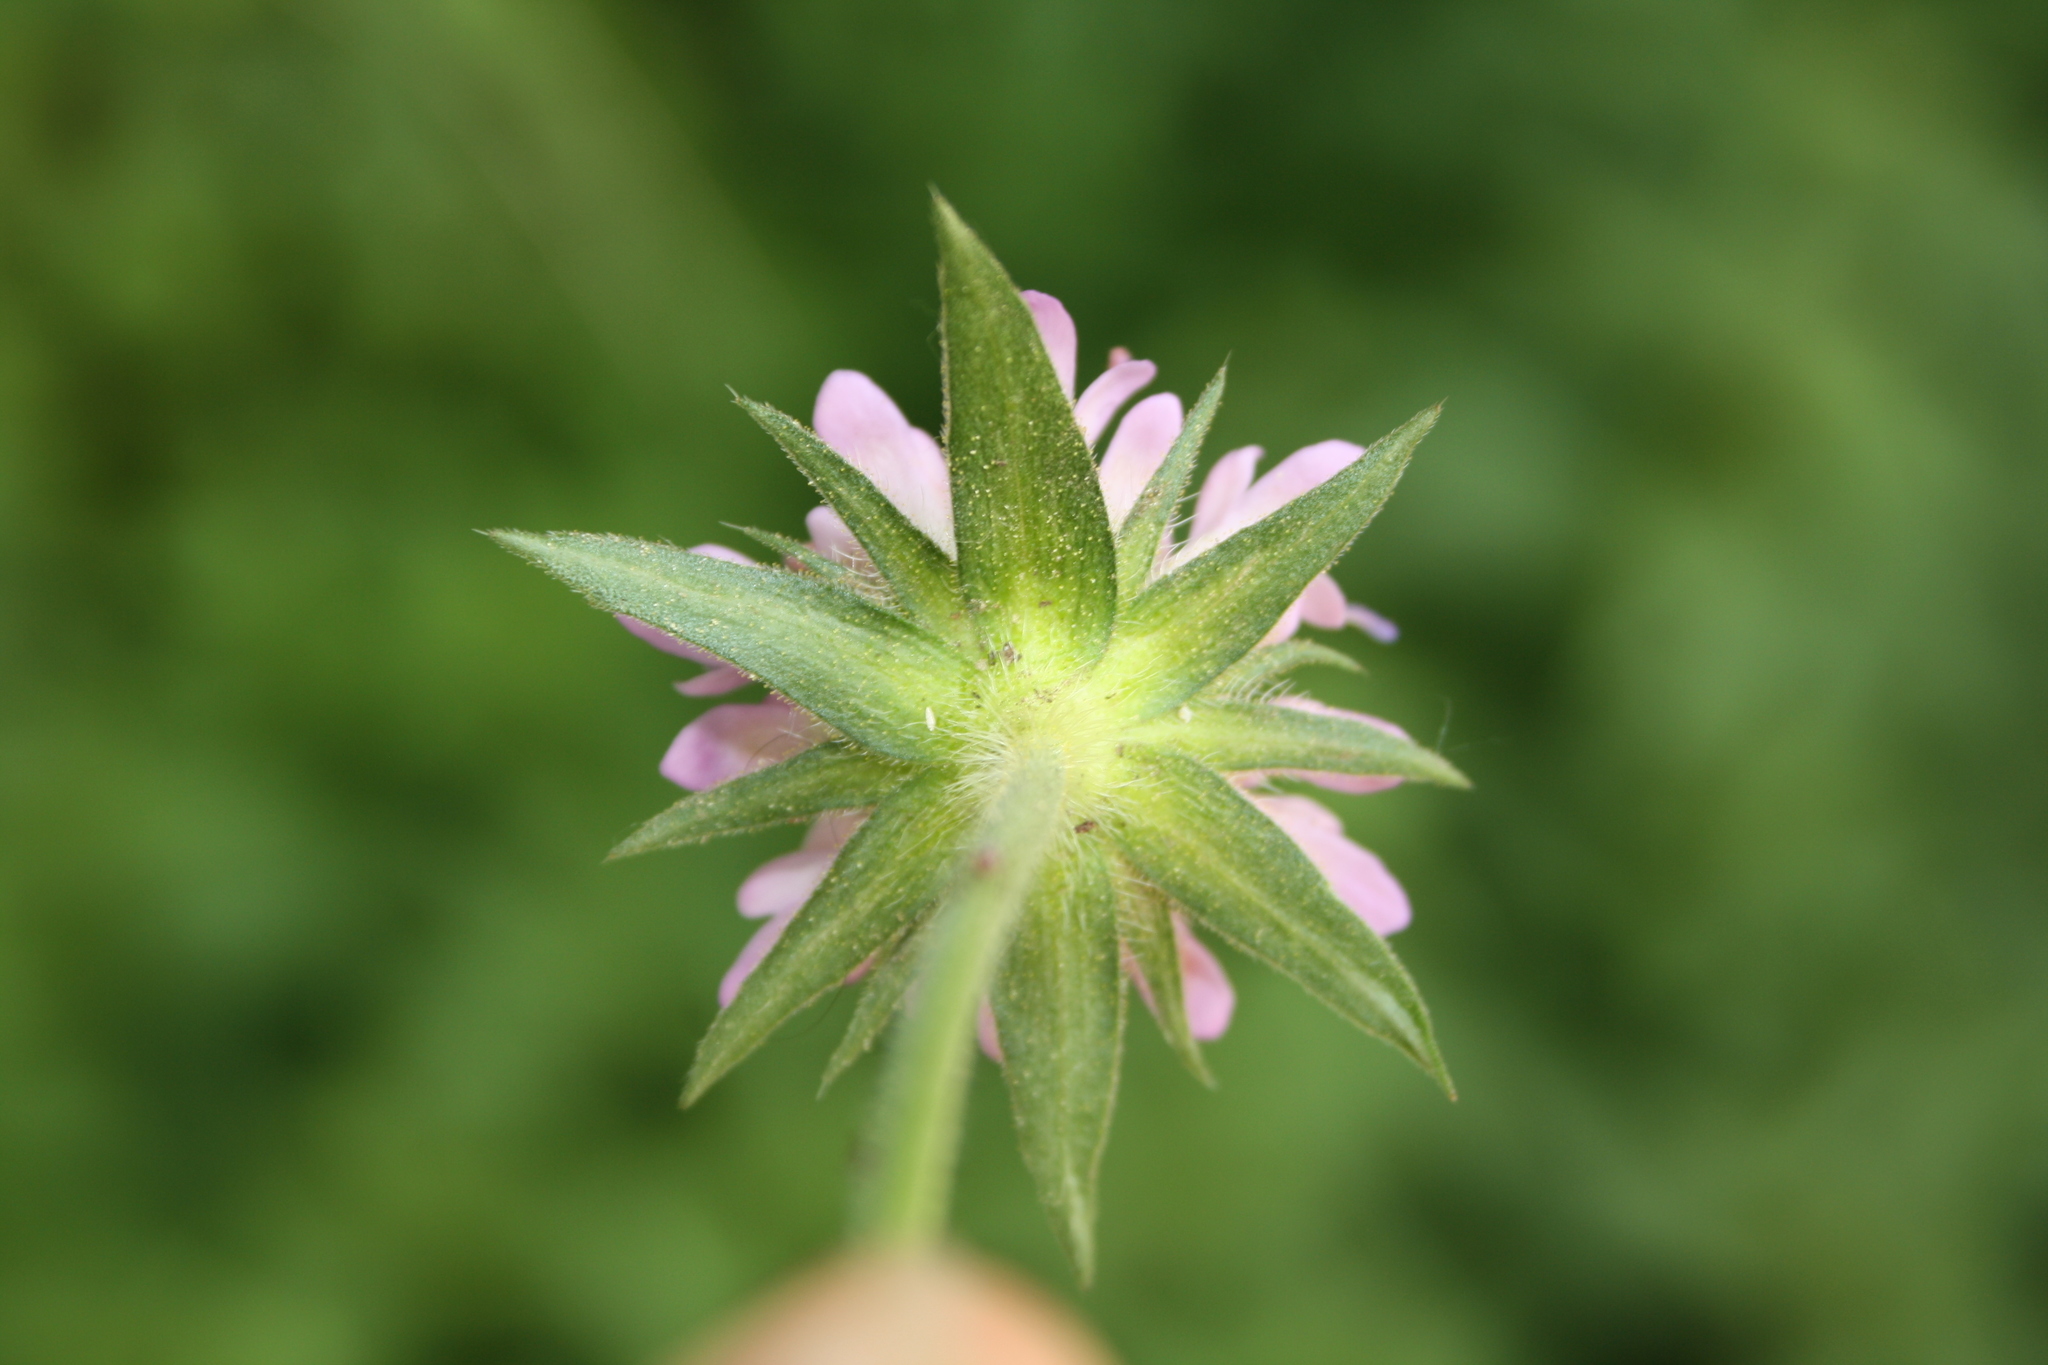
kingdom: Plantae
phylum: Tracheophyta
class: Magnoliopsida
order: Dipsacales
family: Caprifoliaceae
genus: Knautia
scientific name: Knautia dipsacifolia
